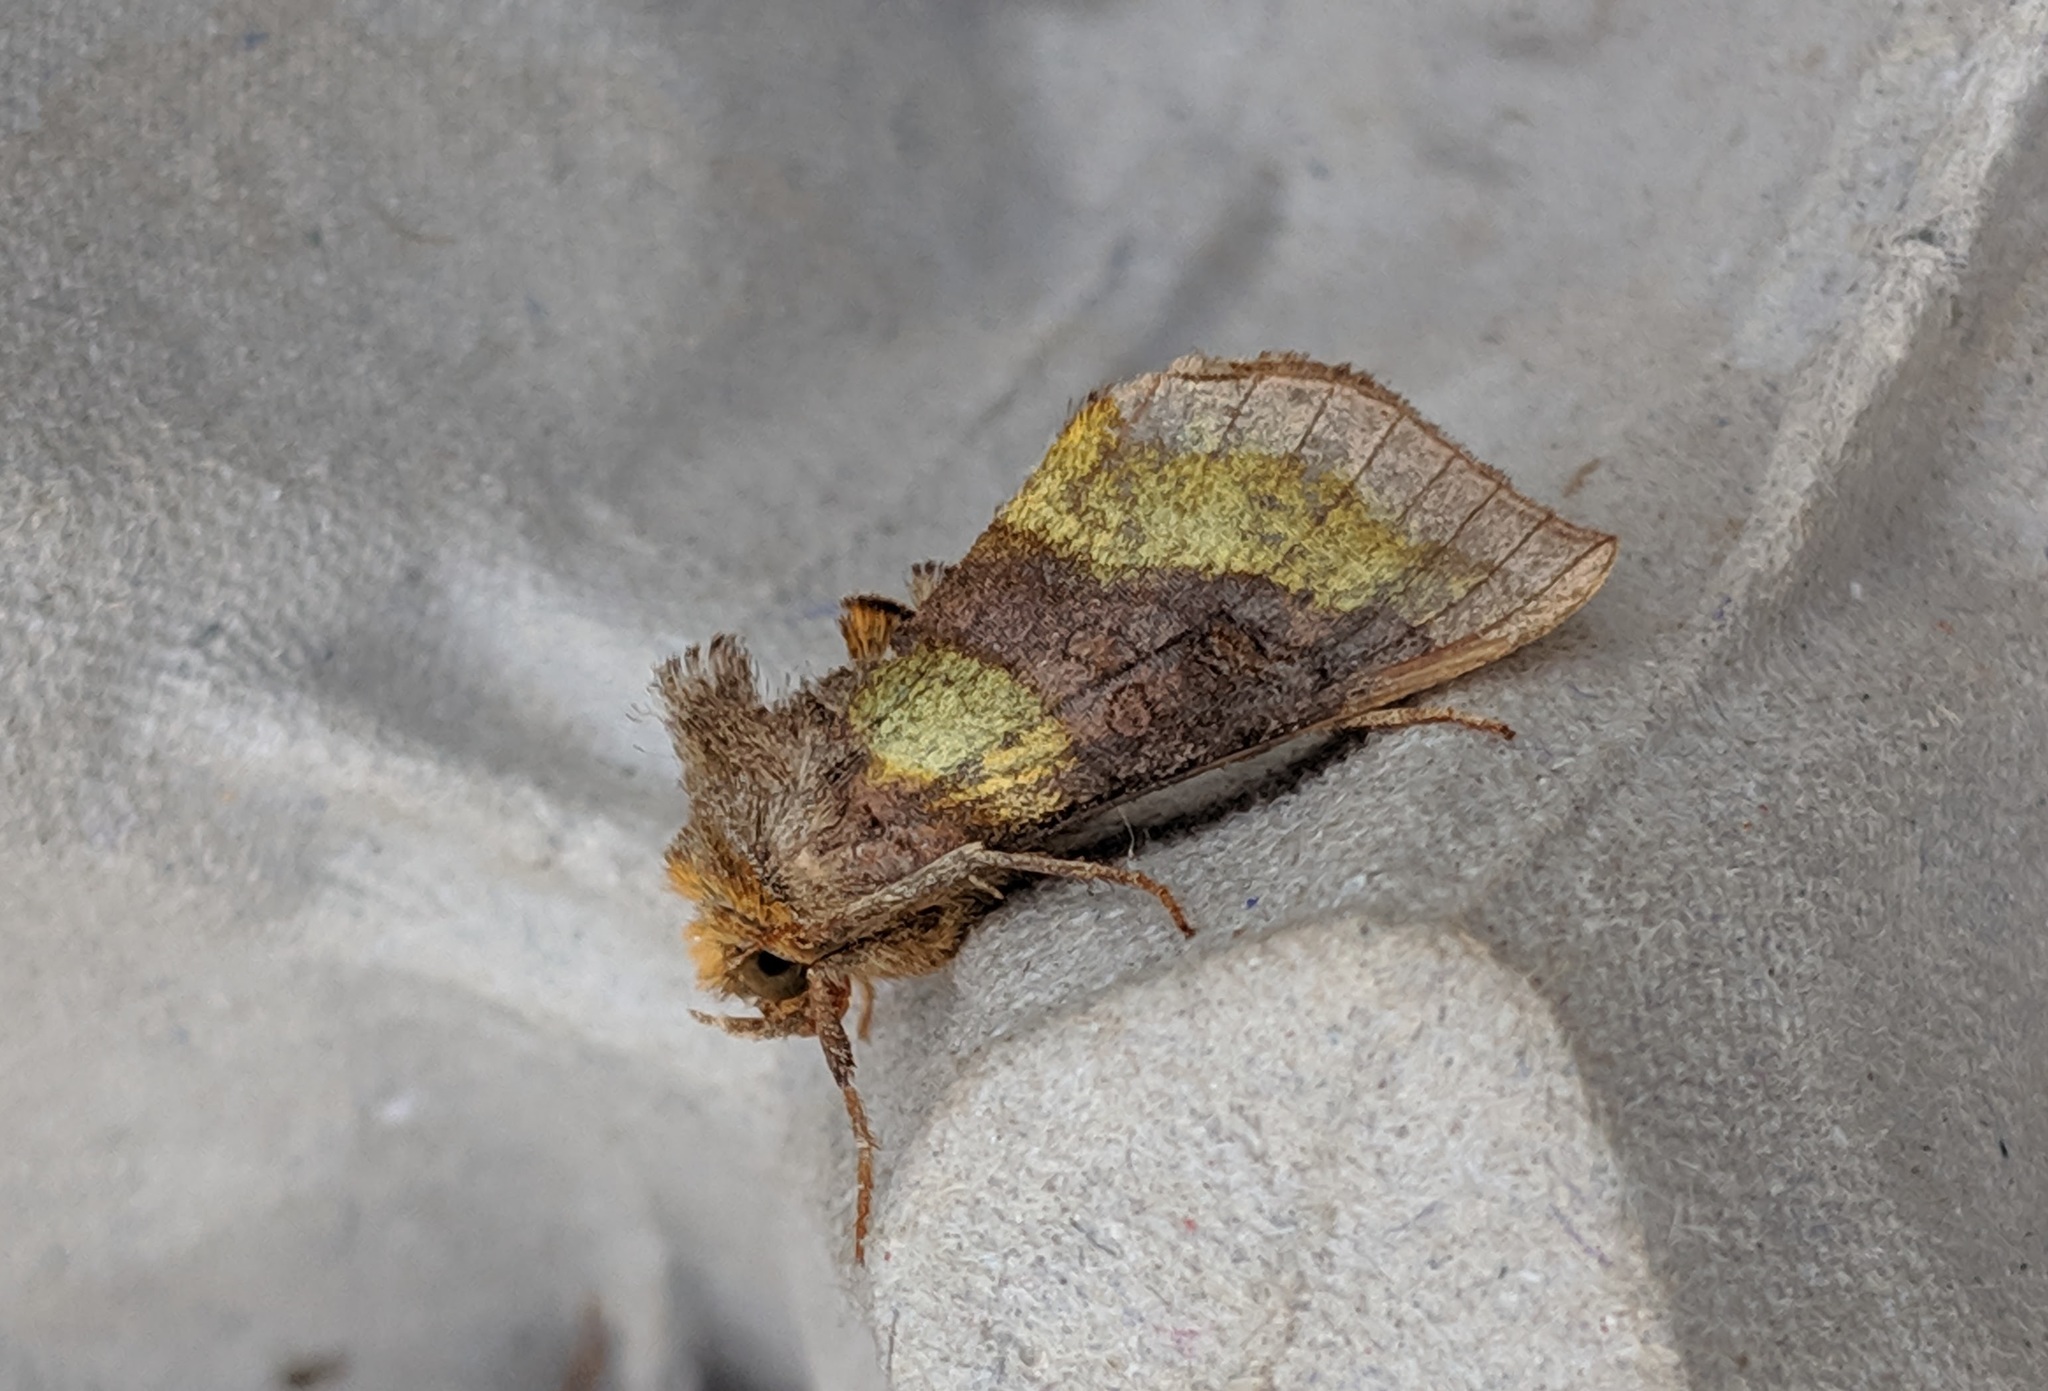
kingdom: Animalia
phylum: Arthropoda
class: Insecta
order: Lepidoptera
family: Noctuidae
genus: Diachrysia
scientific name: Diachrysia chrysitis
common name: Burnished brass
